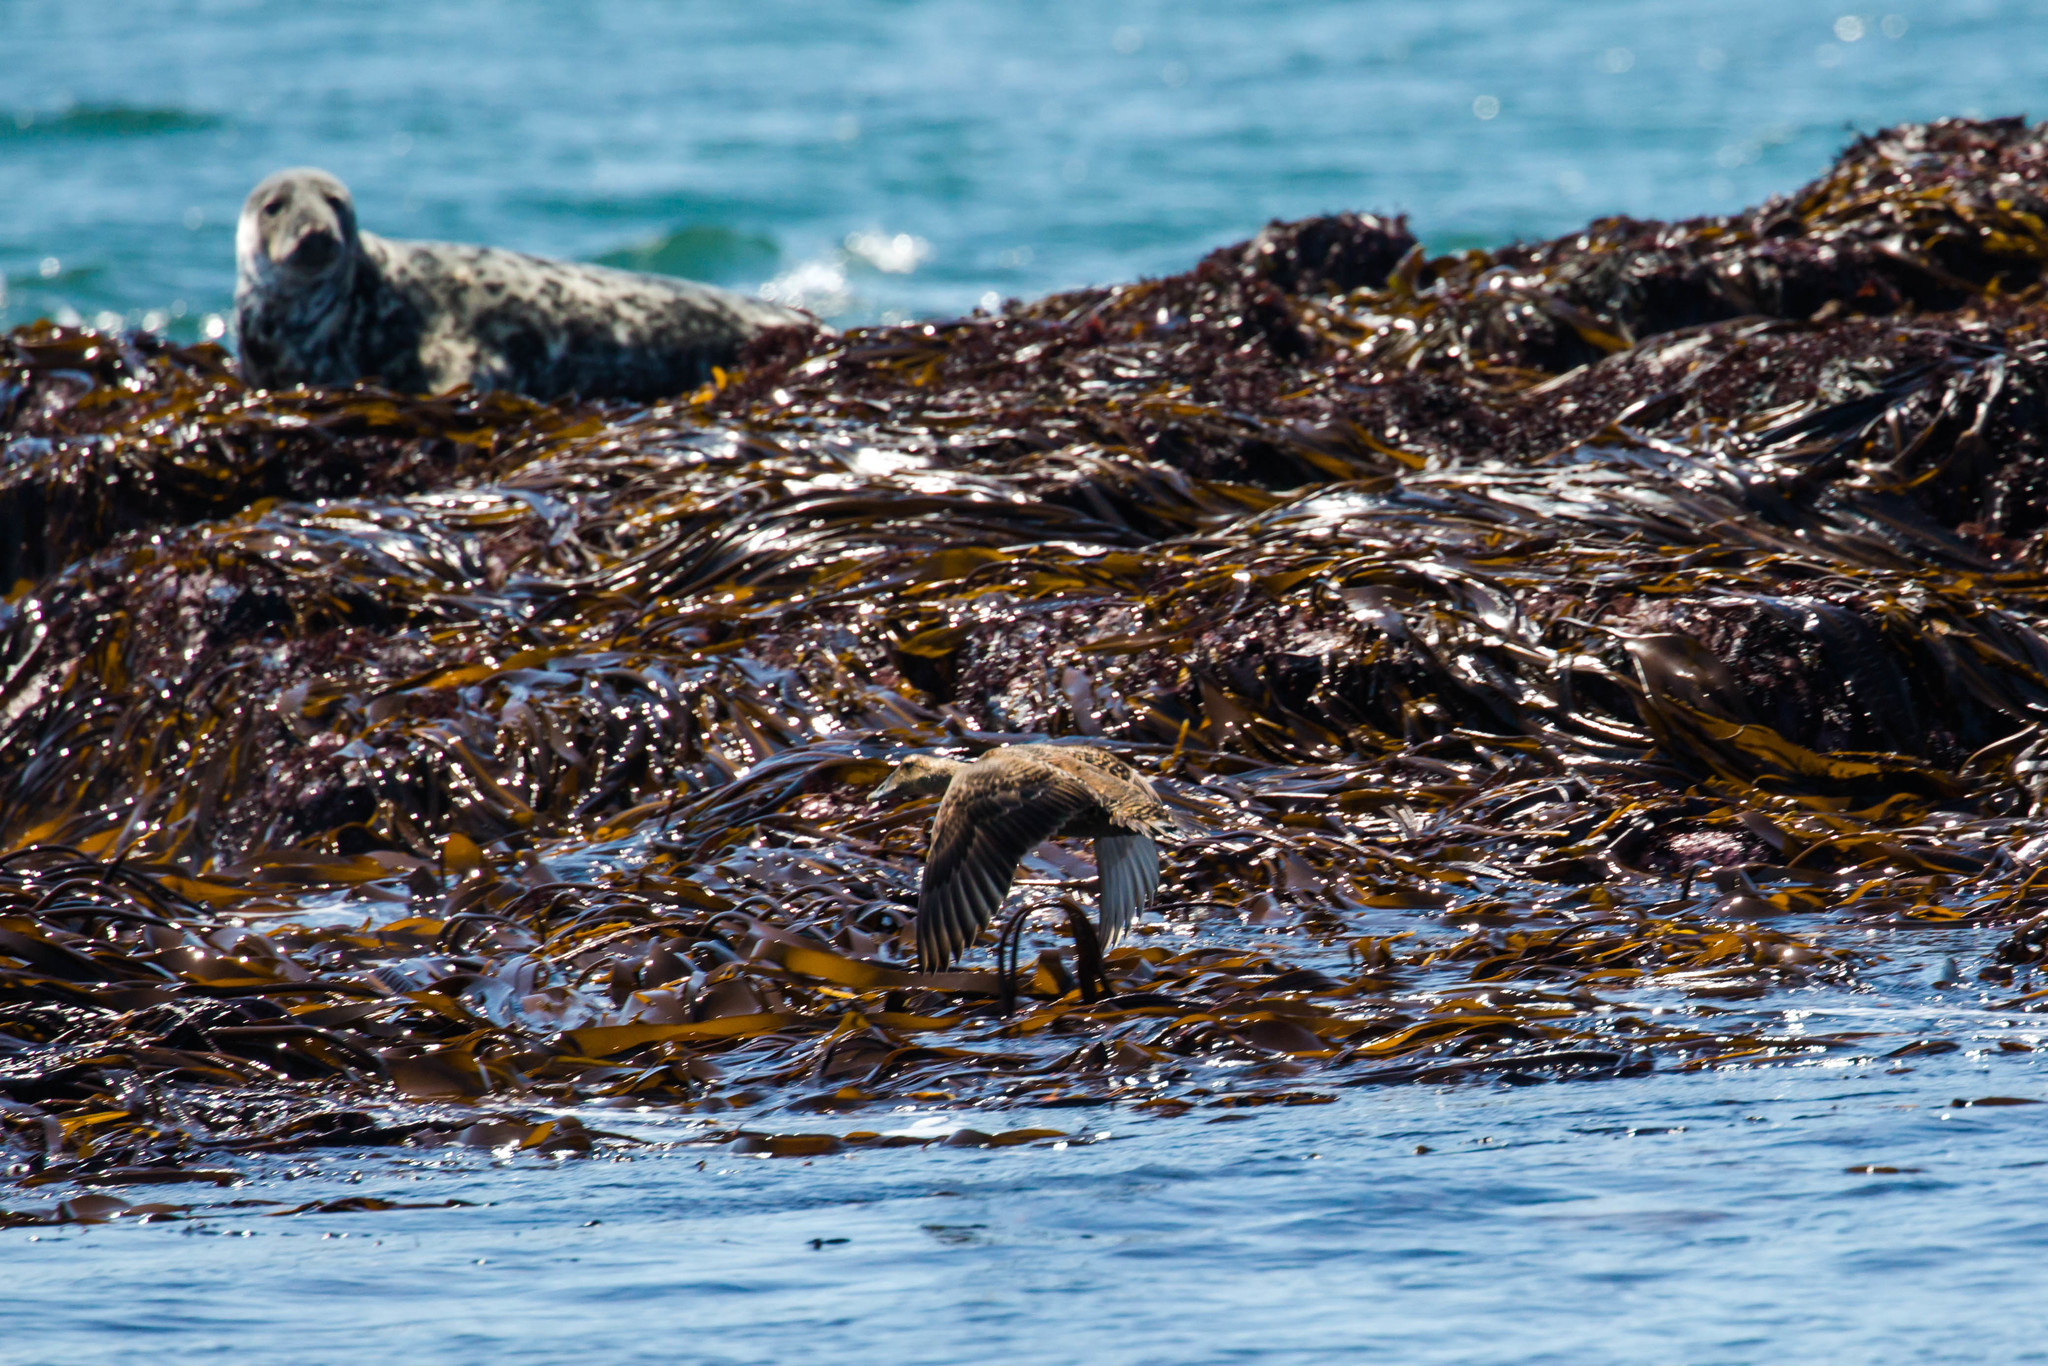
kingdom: Animalia
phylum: Chordata
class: Aves
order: Anseriformes
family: Anatidae
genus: Somateria
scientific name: Somateria mollissima
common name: Common eider
